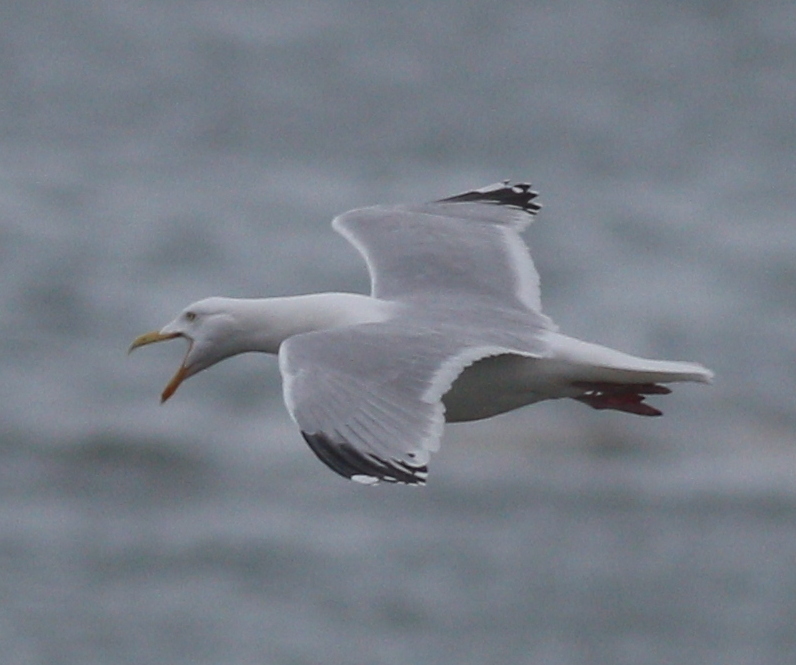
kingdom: Animalia
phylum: Chordata
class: Aves
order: Charadriiformes
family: Laridae
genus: Larus
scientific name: Larus argentatus
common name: Herring gull
